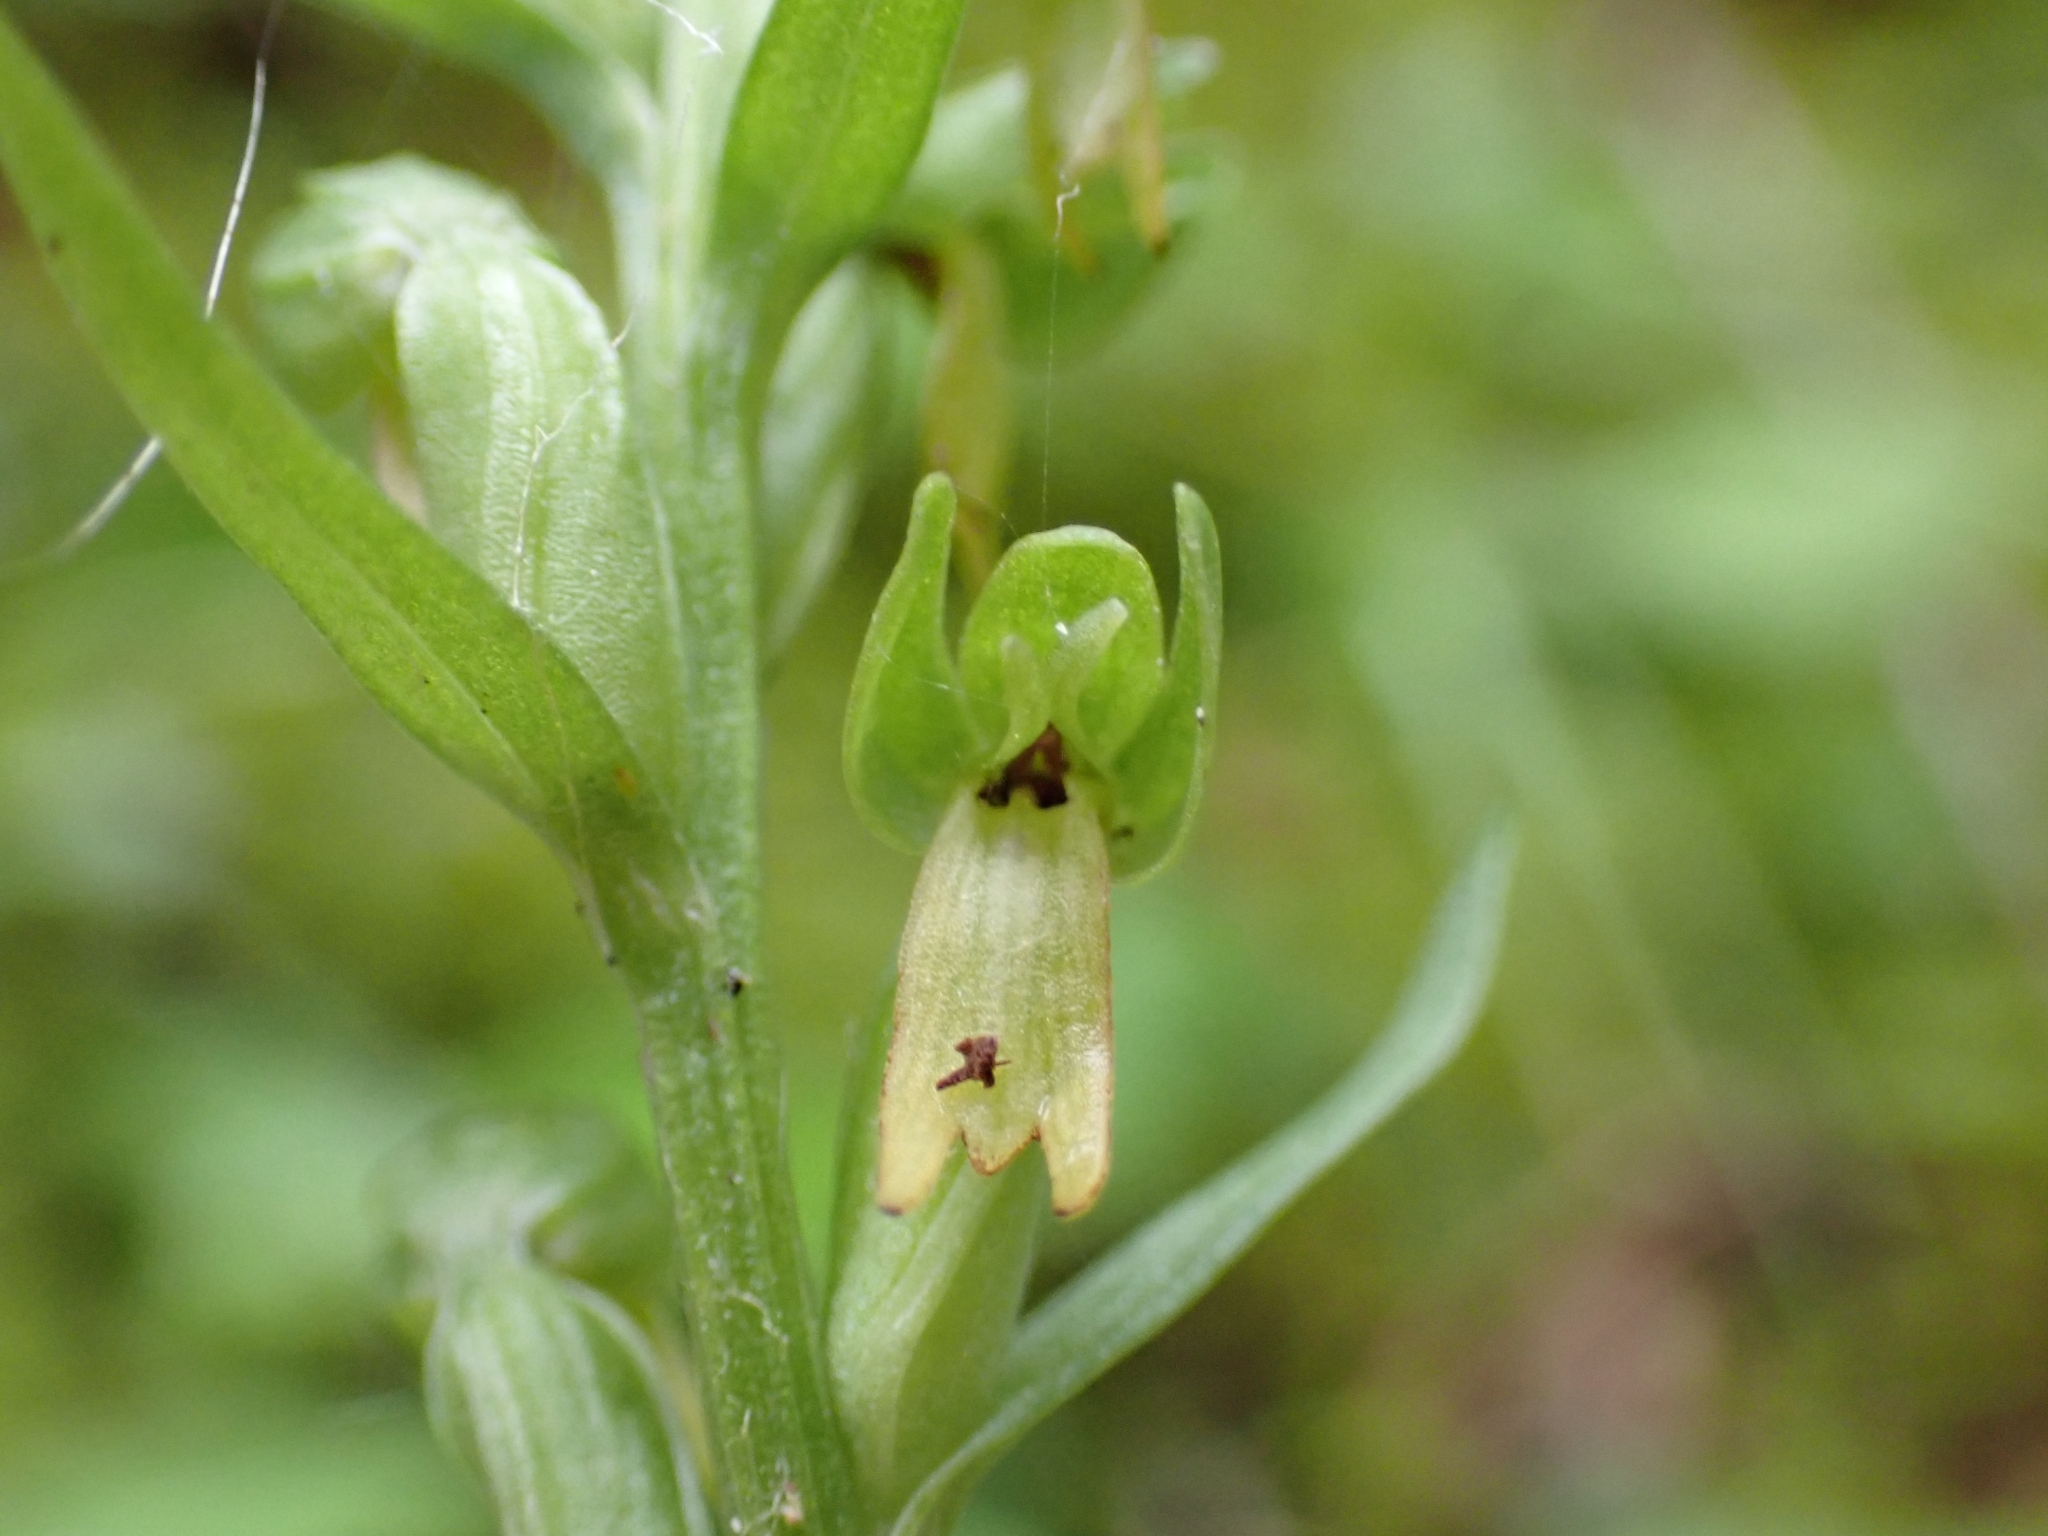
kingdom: Plantae
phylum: Tracheophyta
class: Liliopsida
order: Asparagales
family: Orchidaceae
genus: Dactylorhiza
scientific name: Dactylorhiza viridis
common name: Longbract frog orchid
